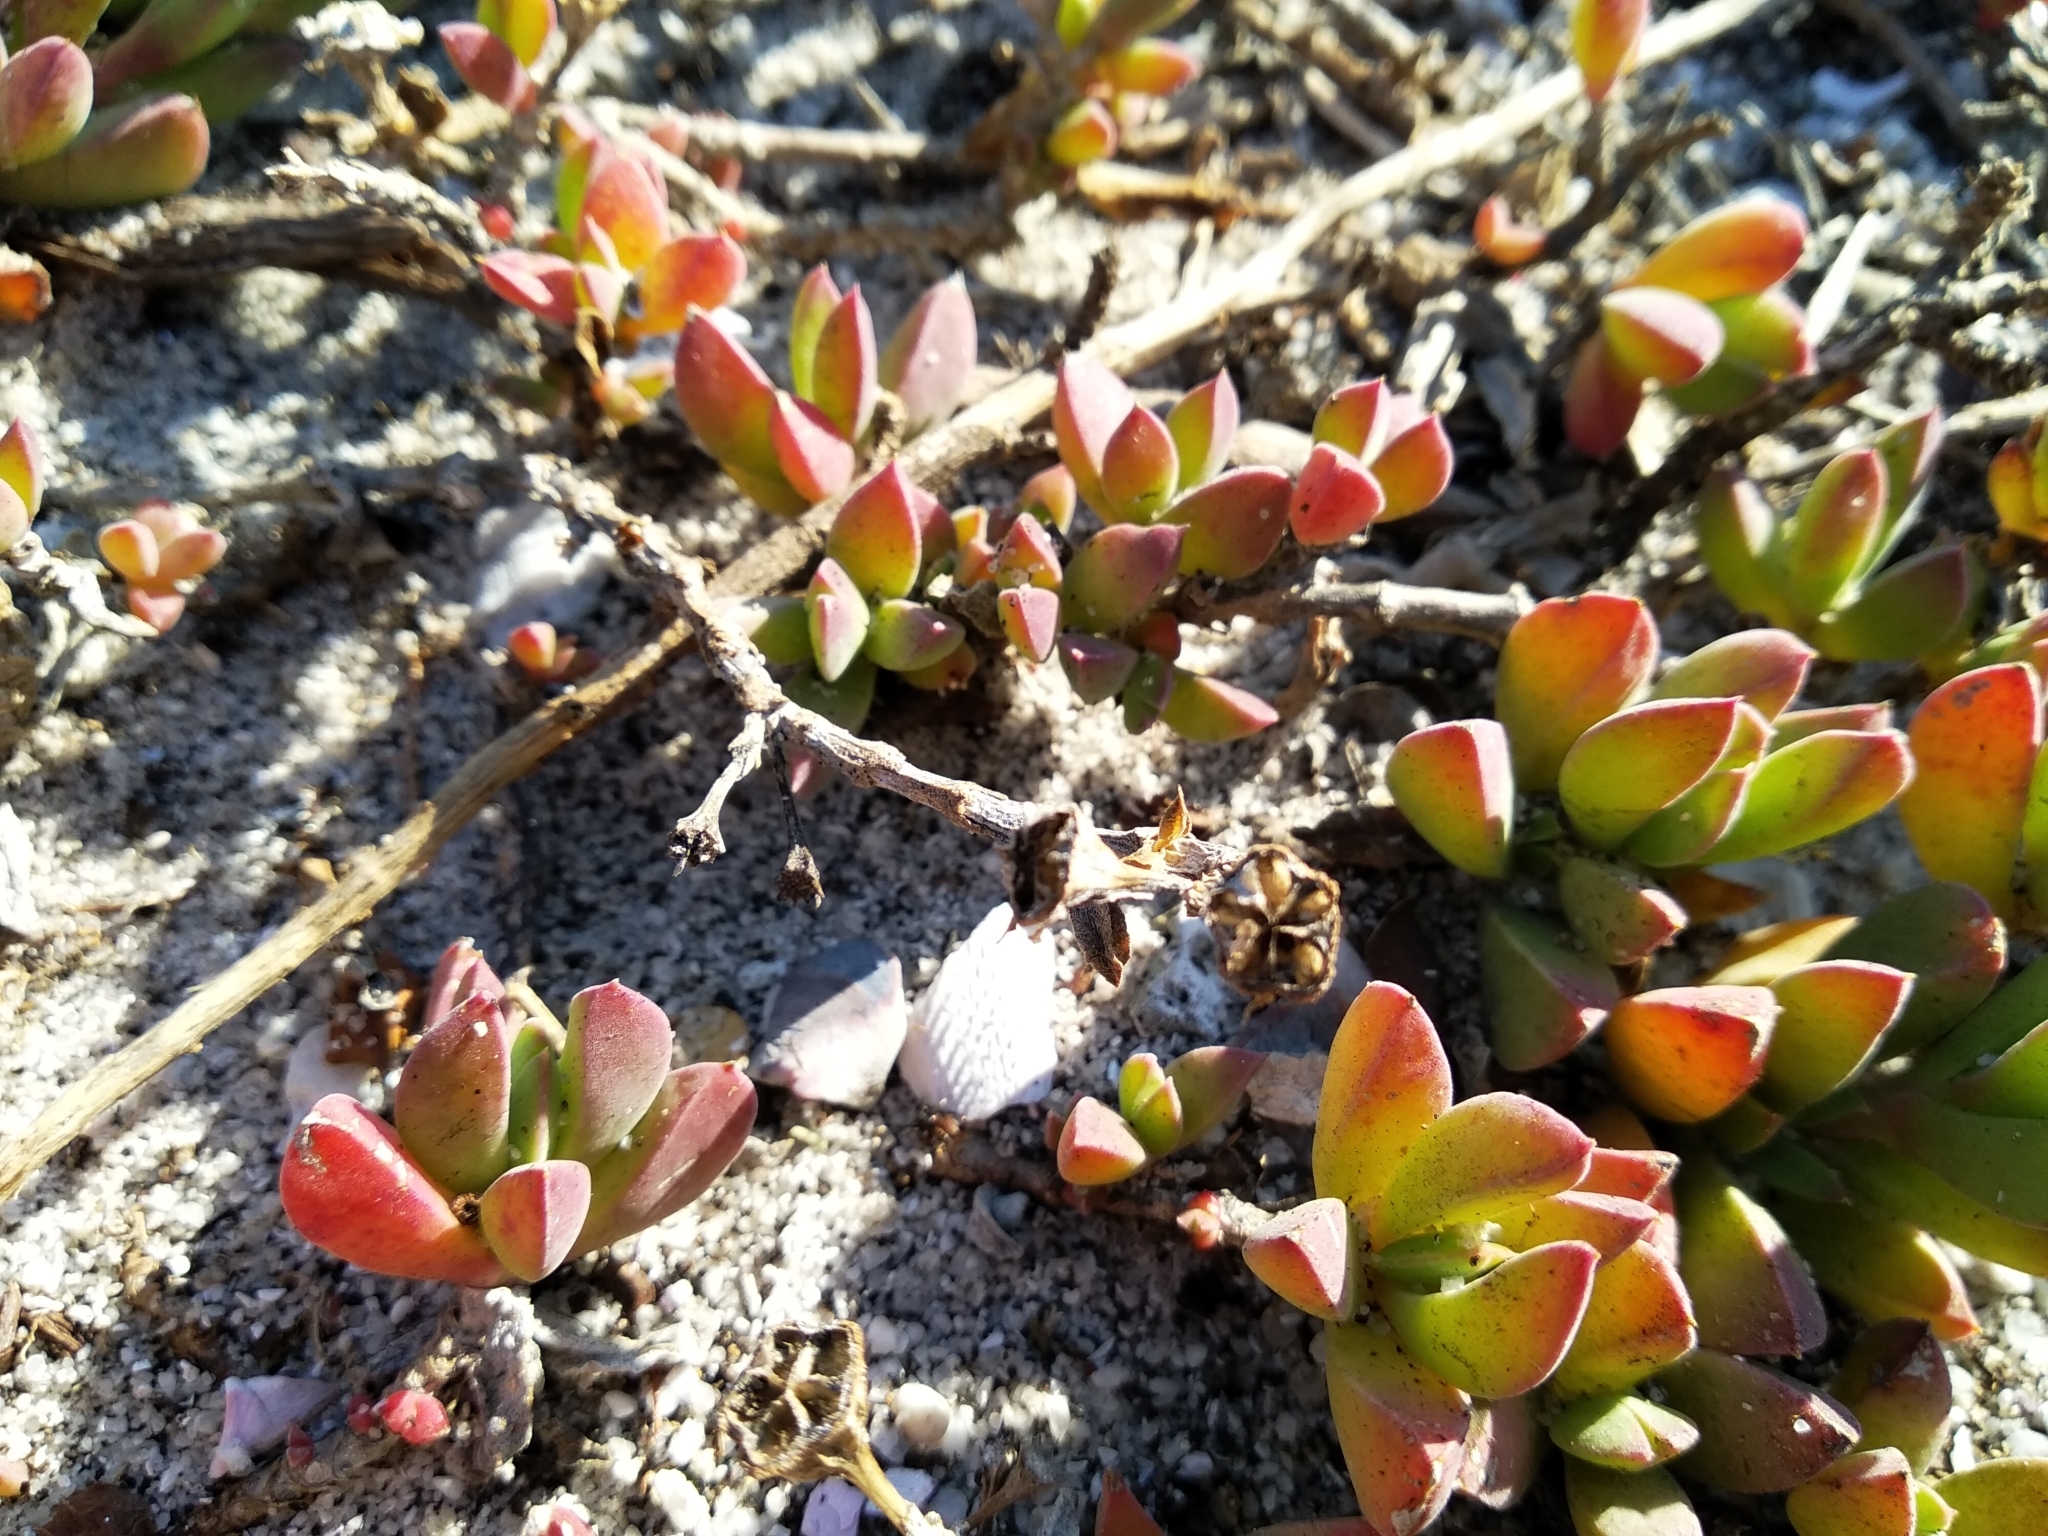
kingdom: Plantae
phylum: Tracheophyta
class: Magnoliopsida
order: Caryophyllales
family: Aizoaceae
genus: Delosperma
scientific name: Delosperma guthriei
